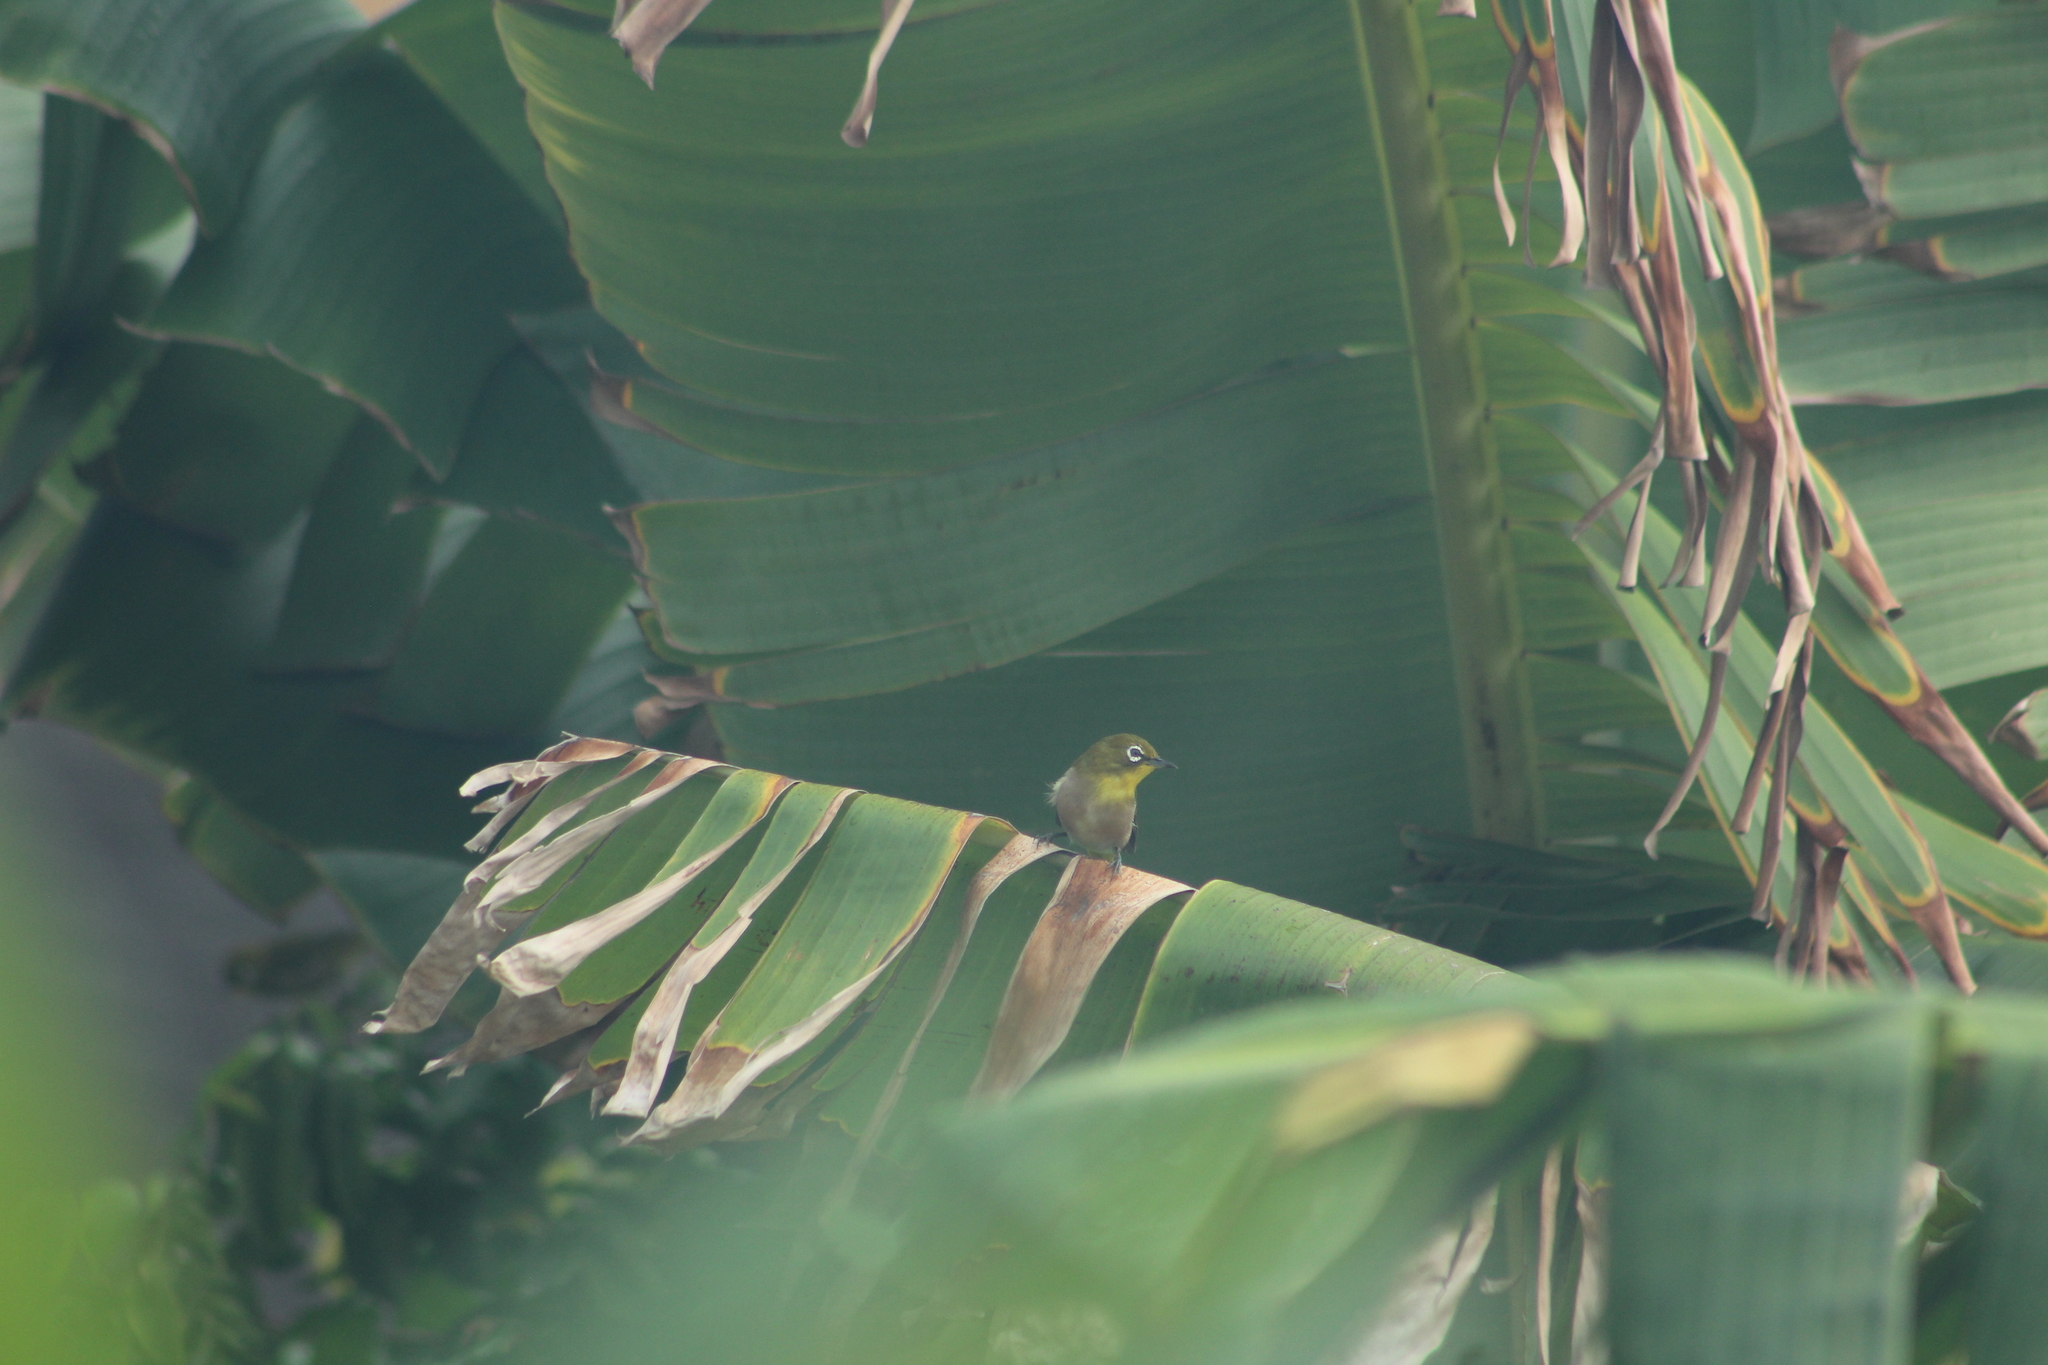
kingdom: Animalia
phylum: Chordata
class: Aves
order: Passeriformes
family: Zosteropidae
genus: Zosterops
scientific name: Zosterops japonicus
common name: Japanese white-eye
